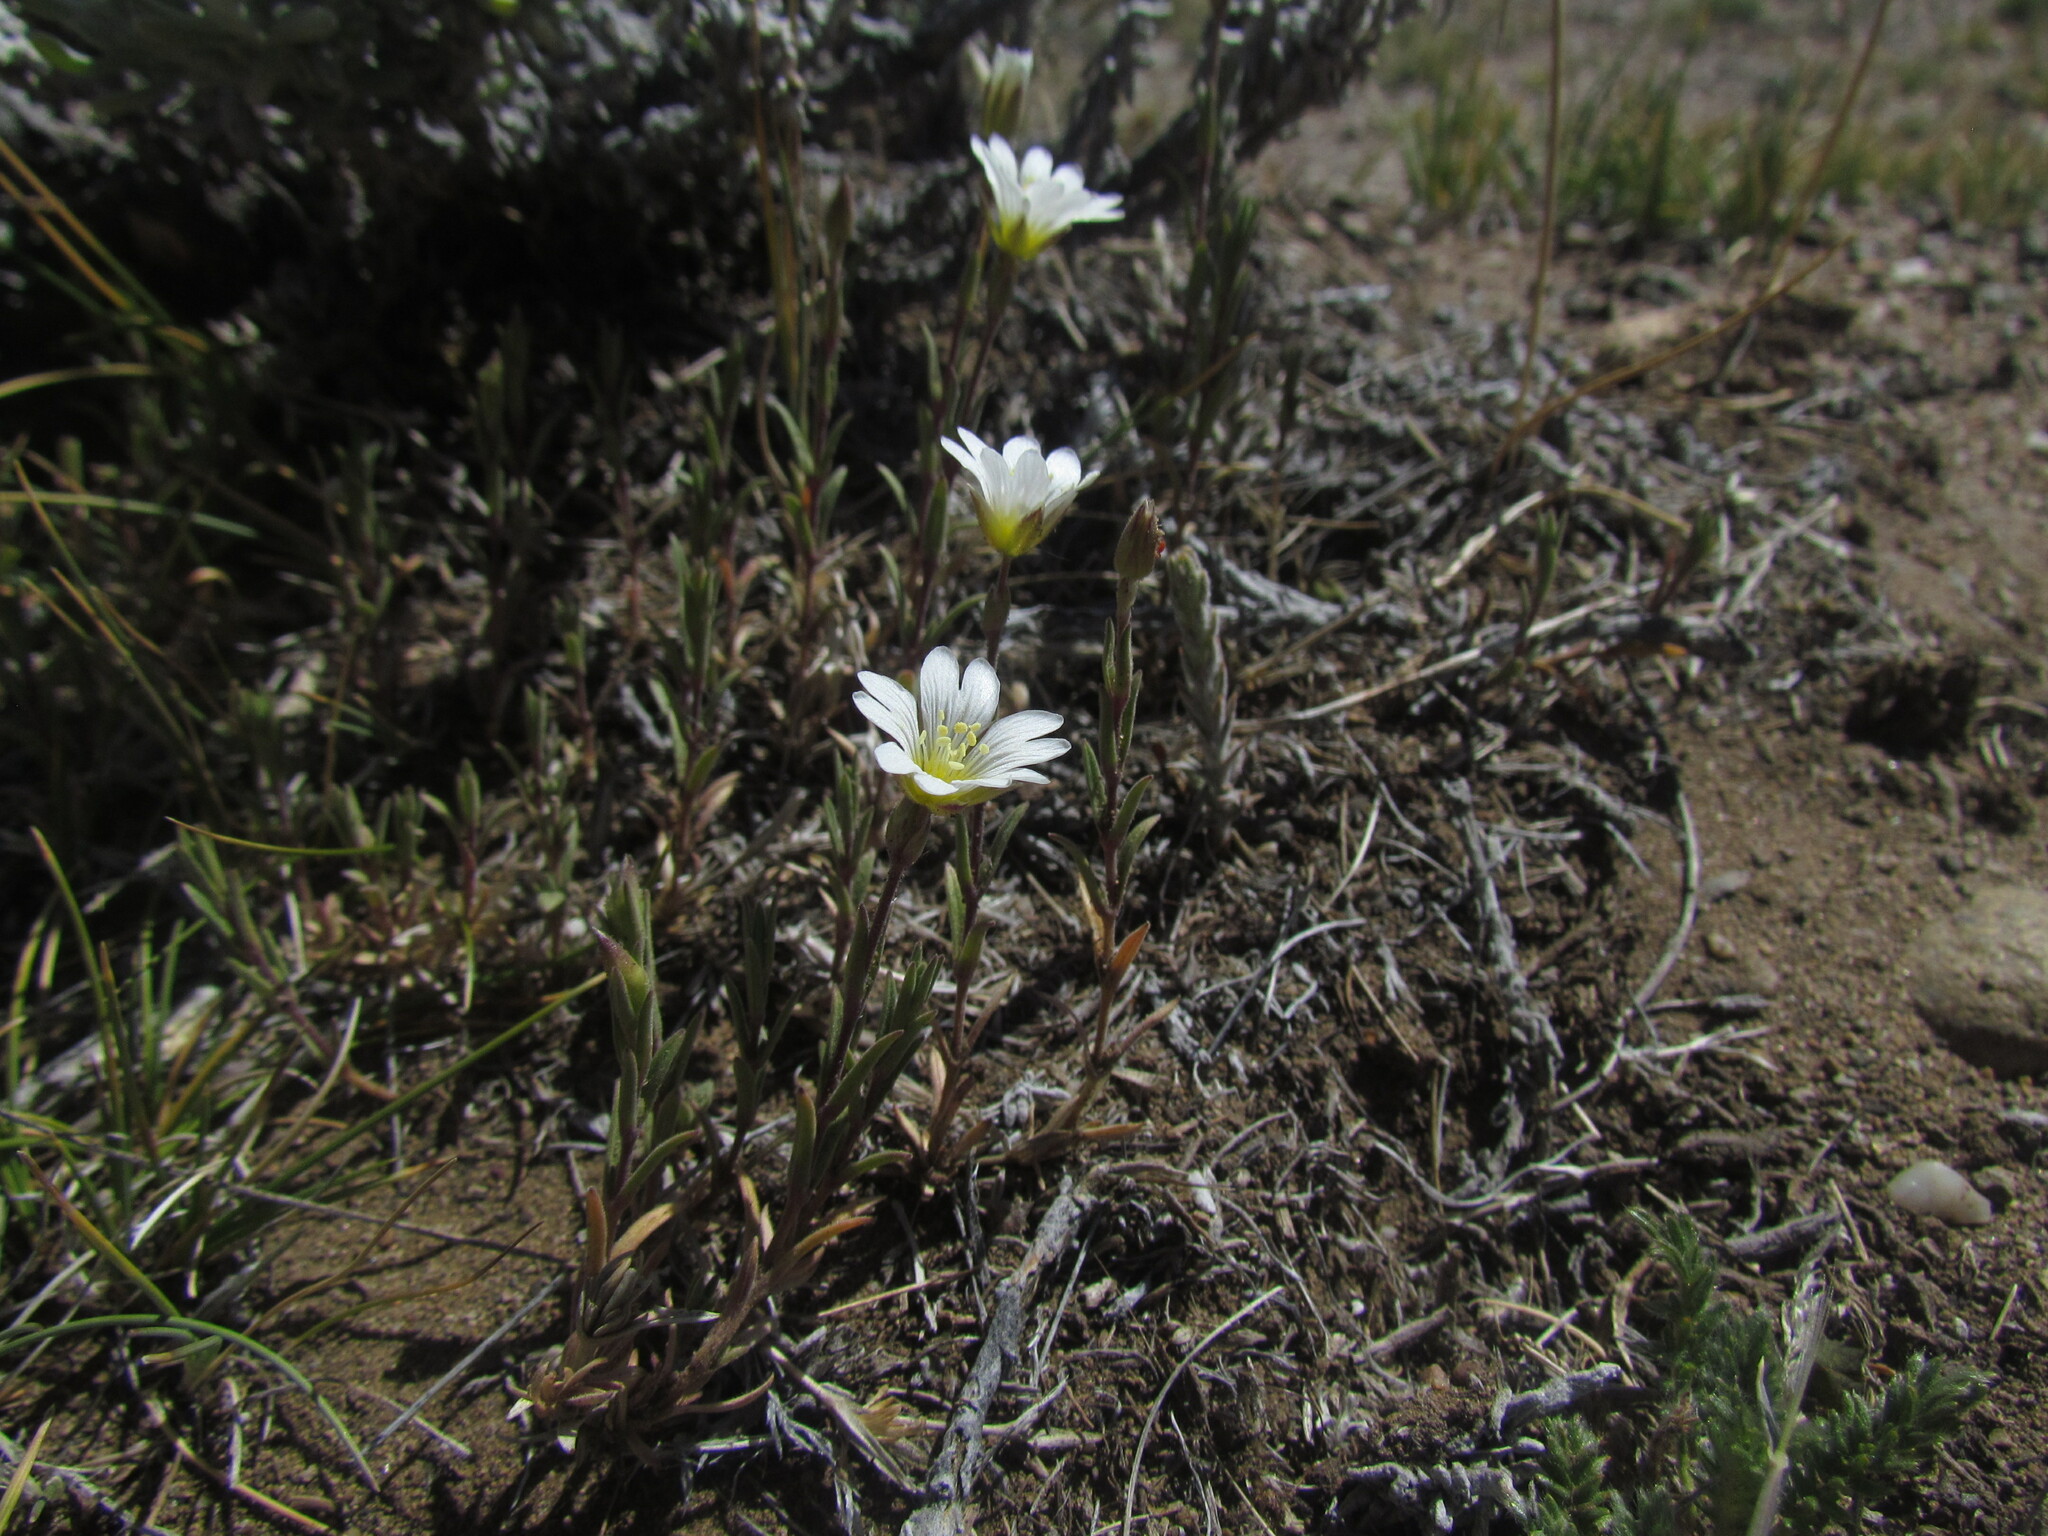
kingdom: Plantae
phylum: Tracheophyta
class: Magnoliopsida
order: Caryophyllales
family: Caryophyllaceae
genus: Cerastium
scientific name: Cerastium arvense
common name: Field mouse-ear
